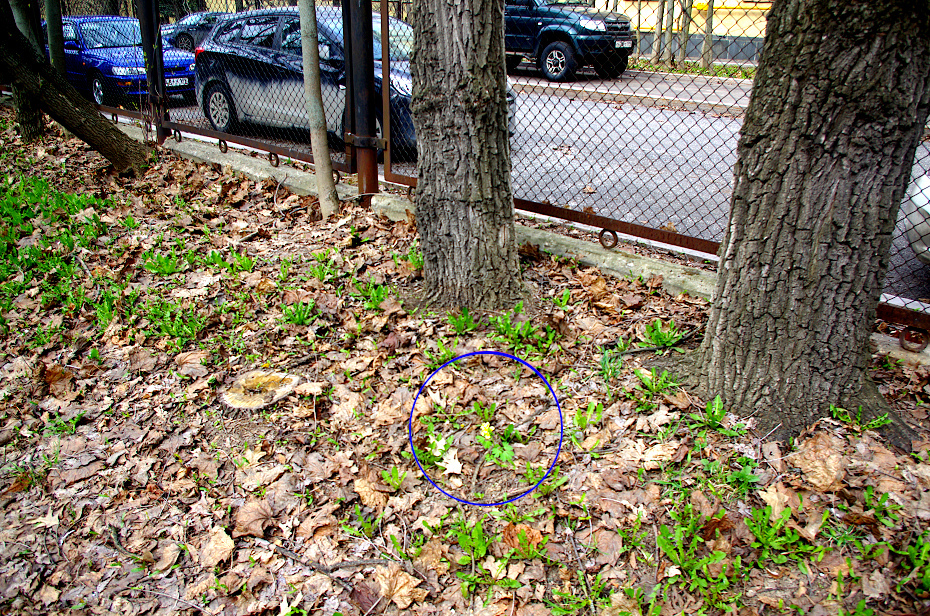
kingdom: Plantae
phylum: Tracheophyta
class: Magnoliopsida
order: Ranunculales
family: Papaveraceae
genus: Corydalis
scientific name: Corydalis bracteata
